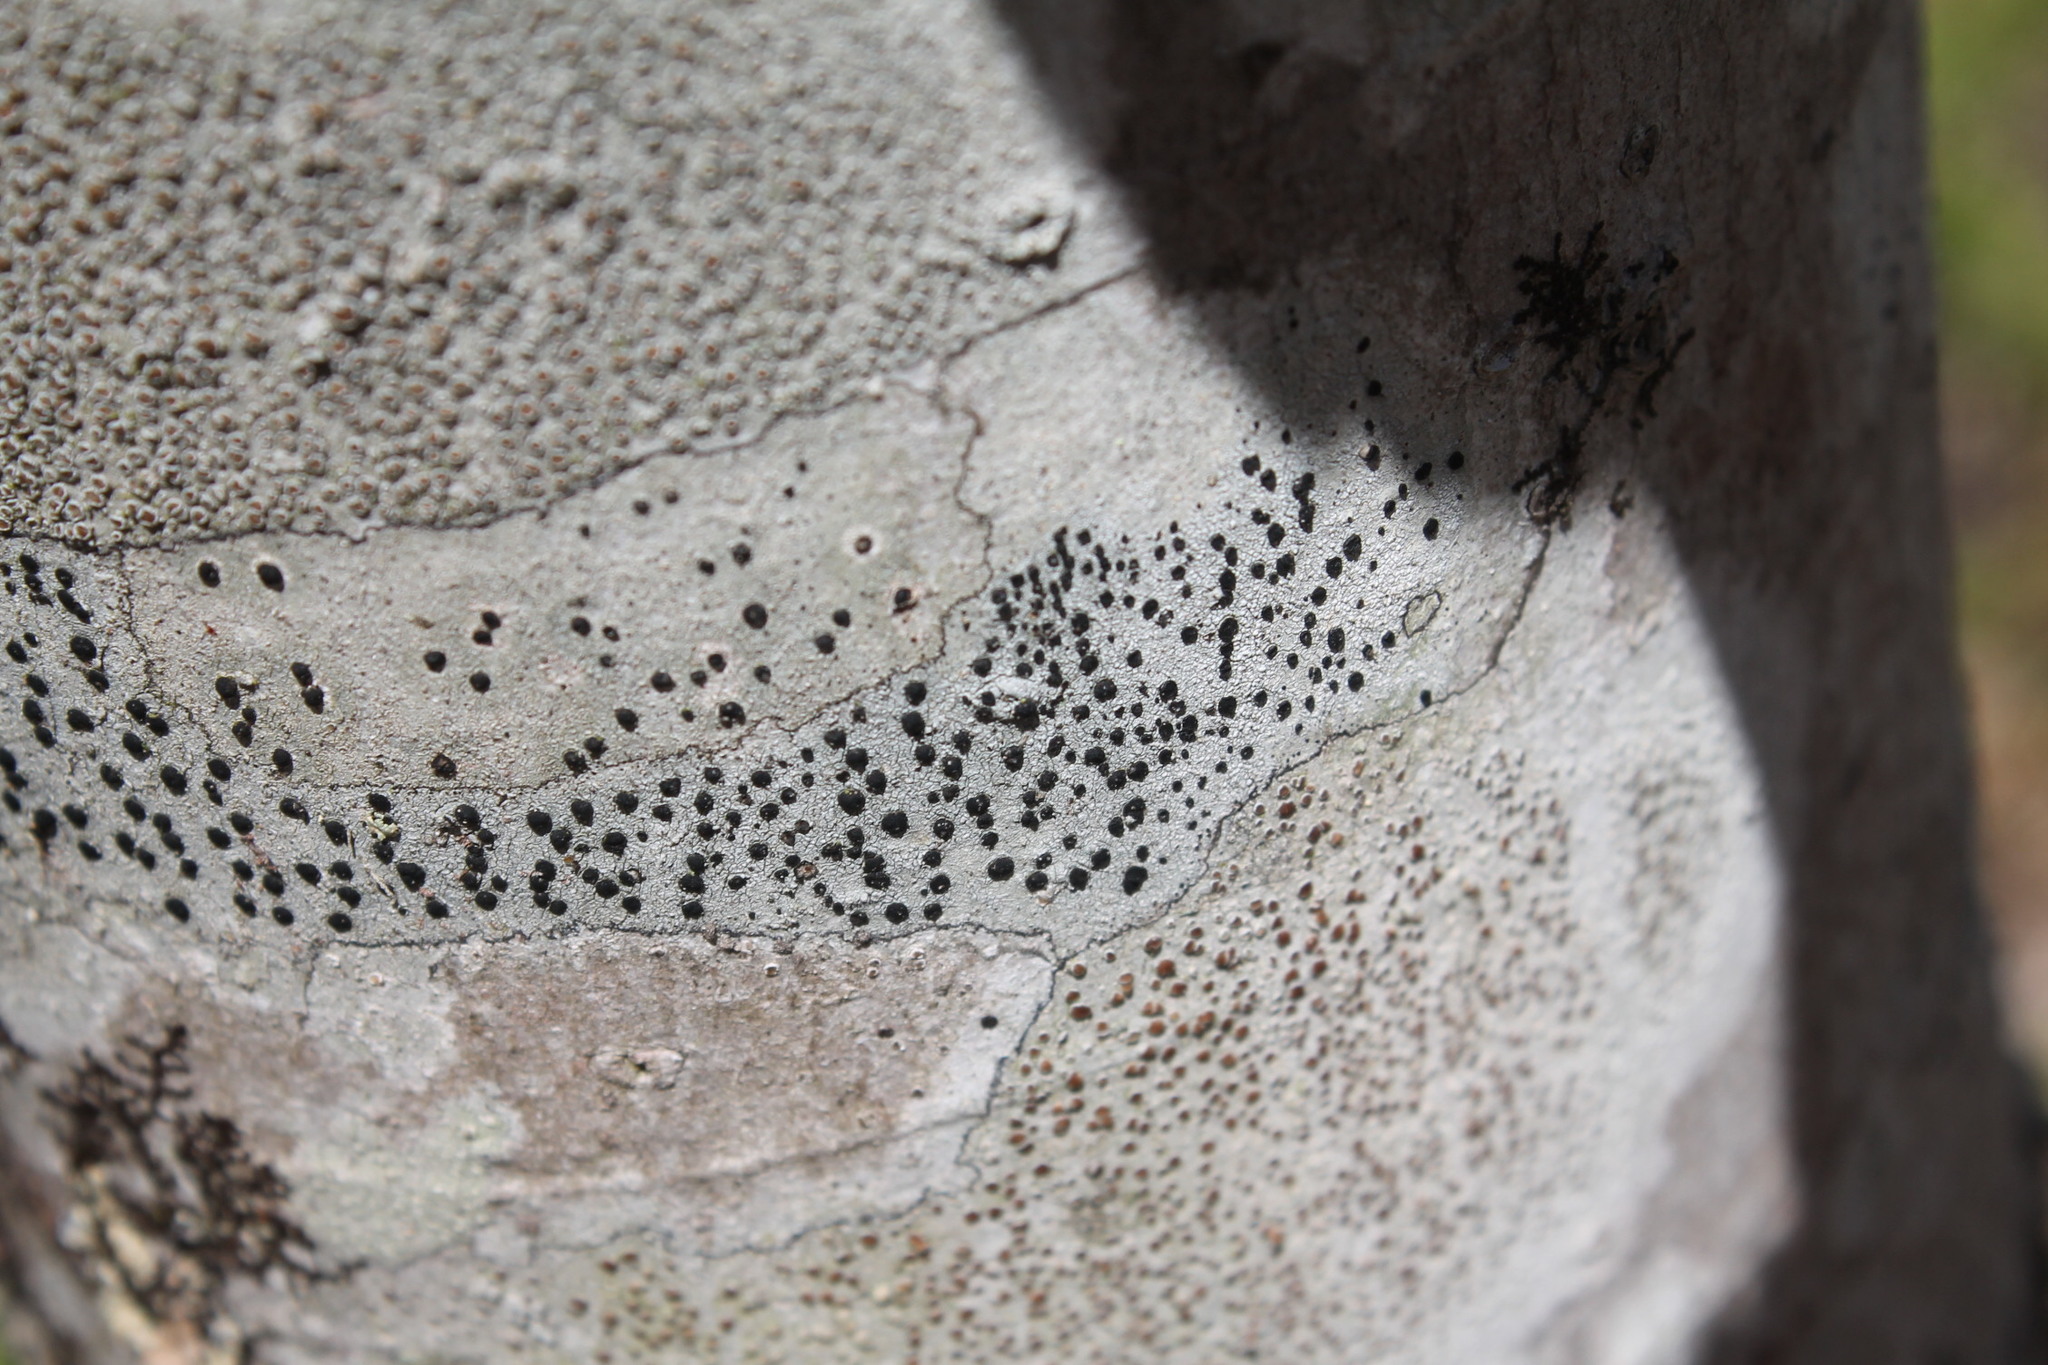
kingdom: Fungi
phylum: Ascomycota
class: Lecanoromycetes
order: Caliciales
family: Caliciaceae
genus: Buellia
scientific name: Buellia erubescens
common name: Common button lichen
